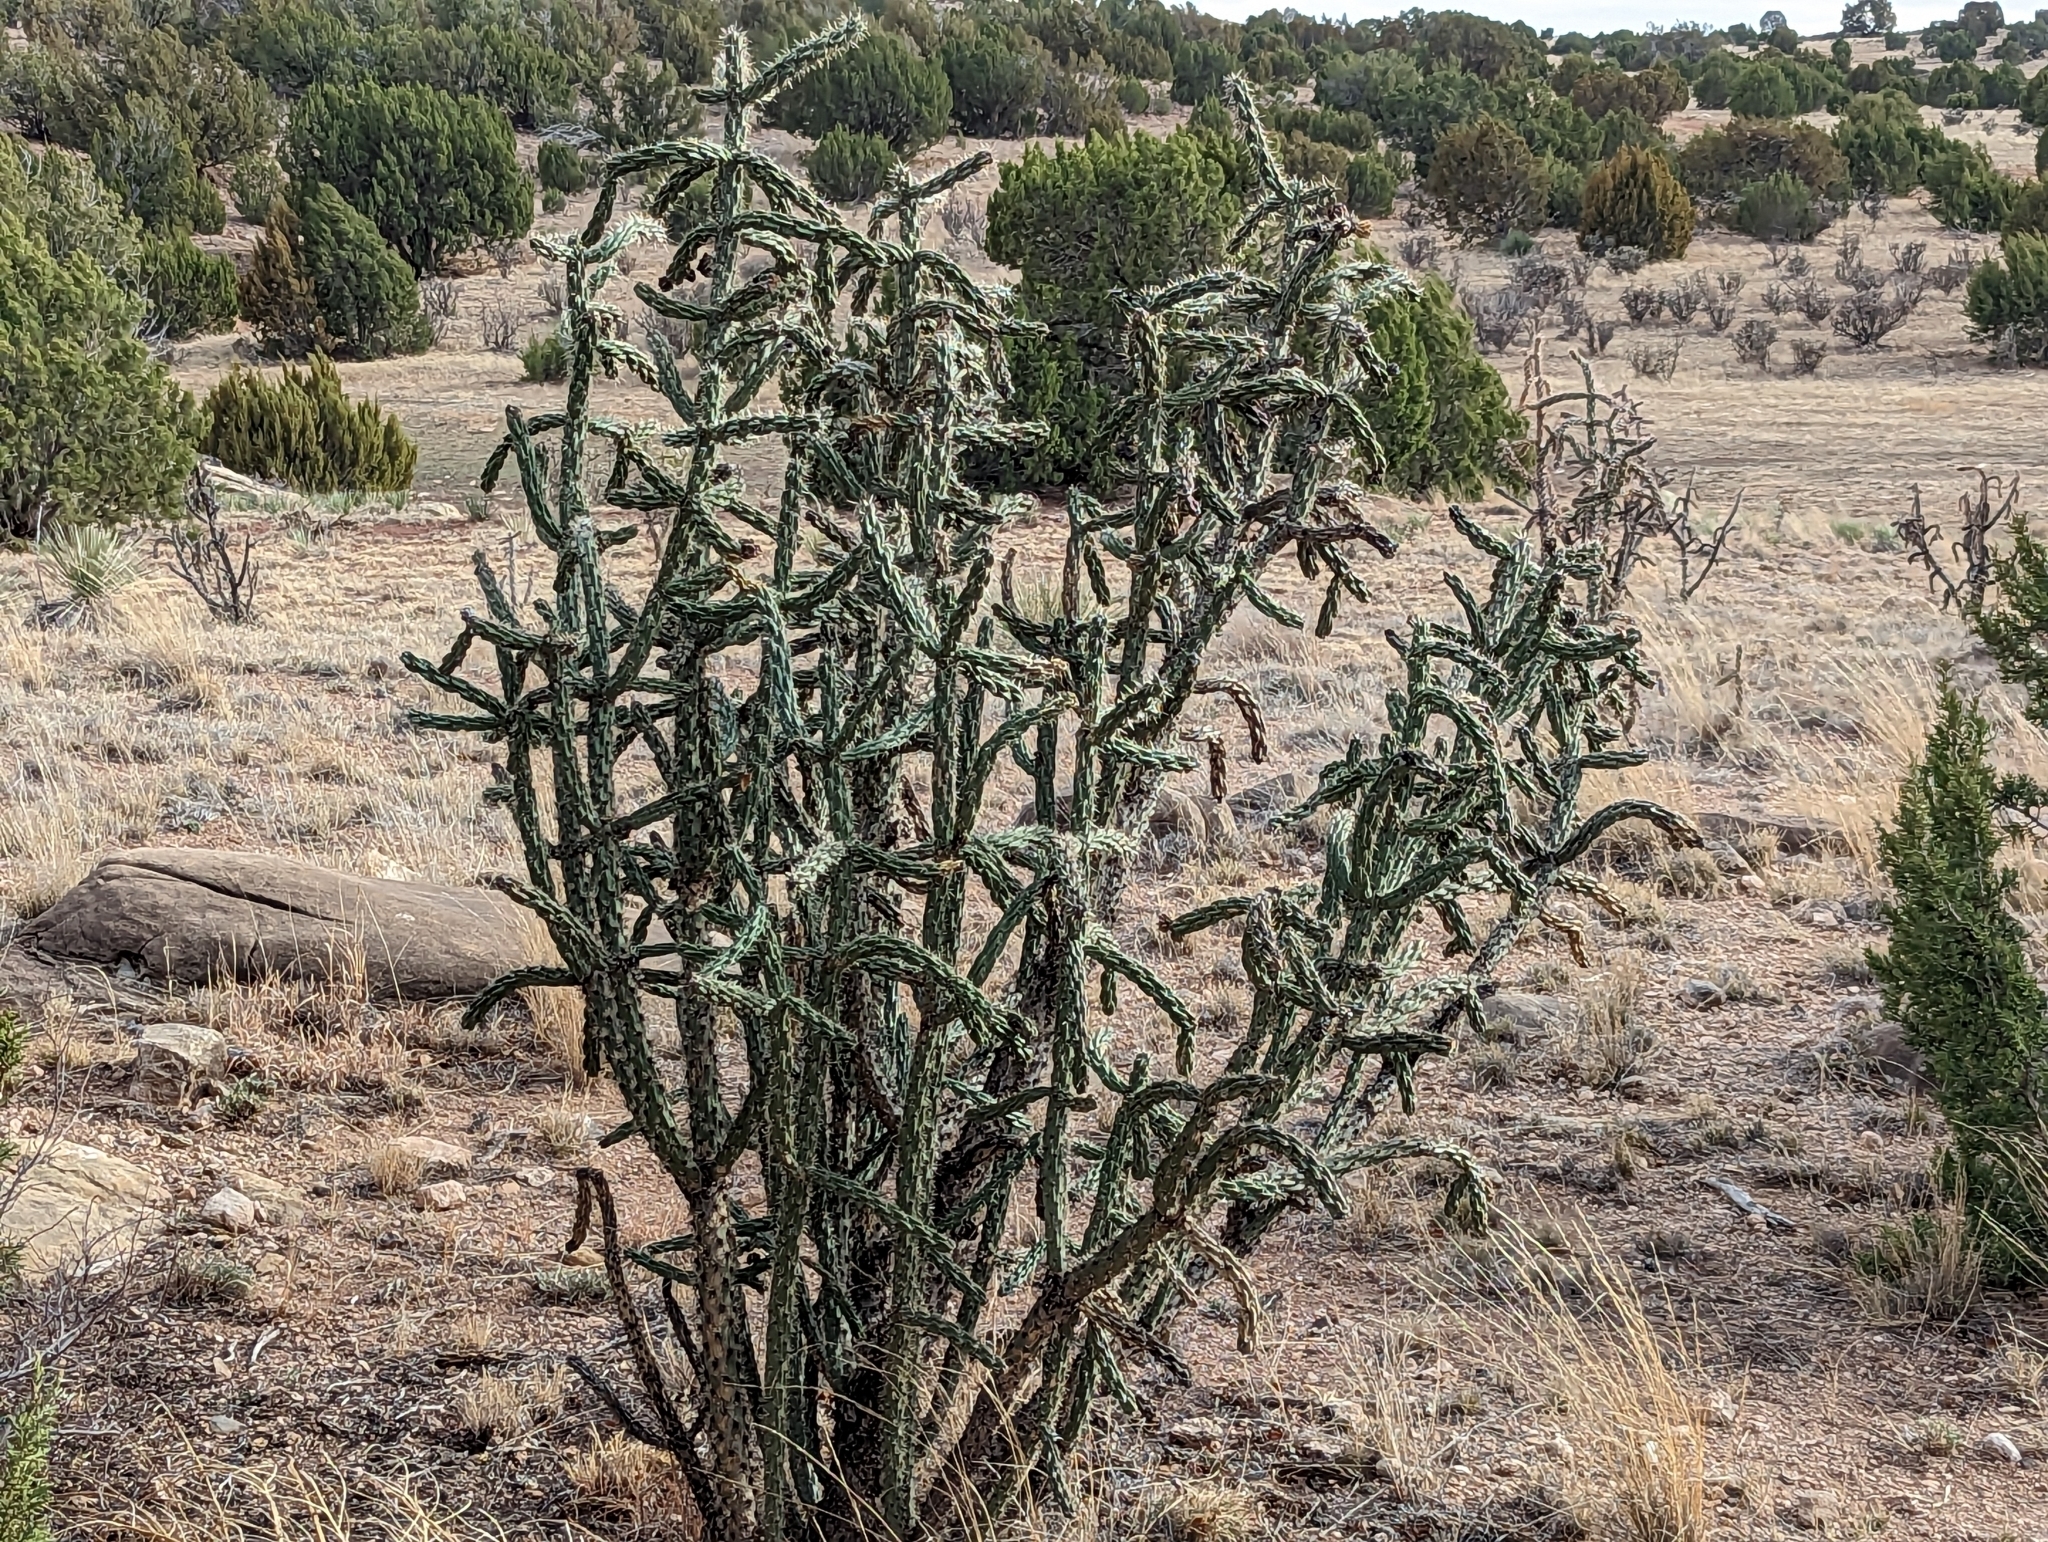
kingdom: Plantae
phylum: Tracheophyta
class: Magnoliopsida
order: Caryophyllales
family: Cactaceae
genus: Cylindropuntia
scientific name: Cylindropuntia imbricata
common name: Candelabrum cactus
